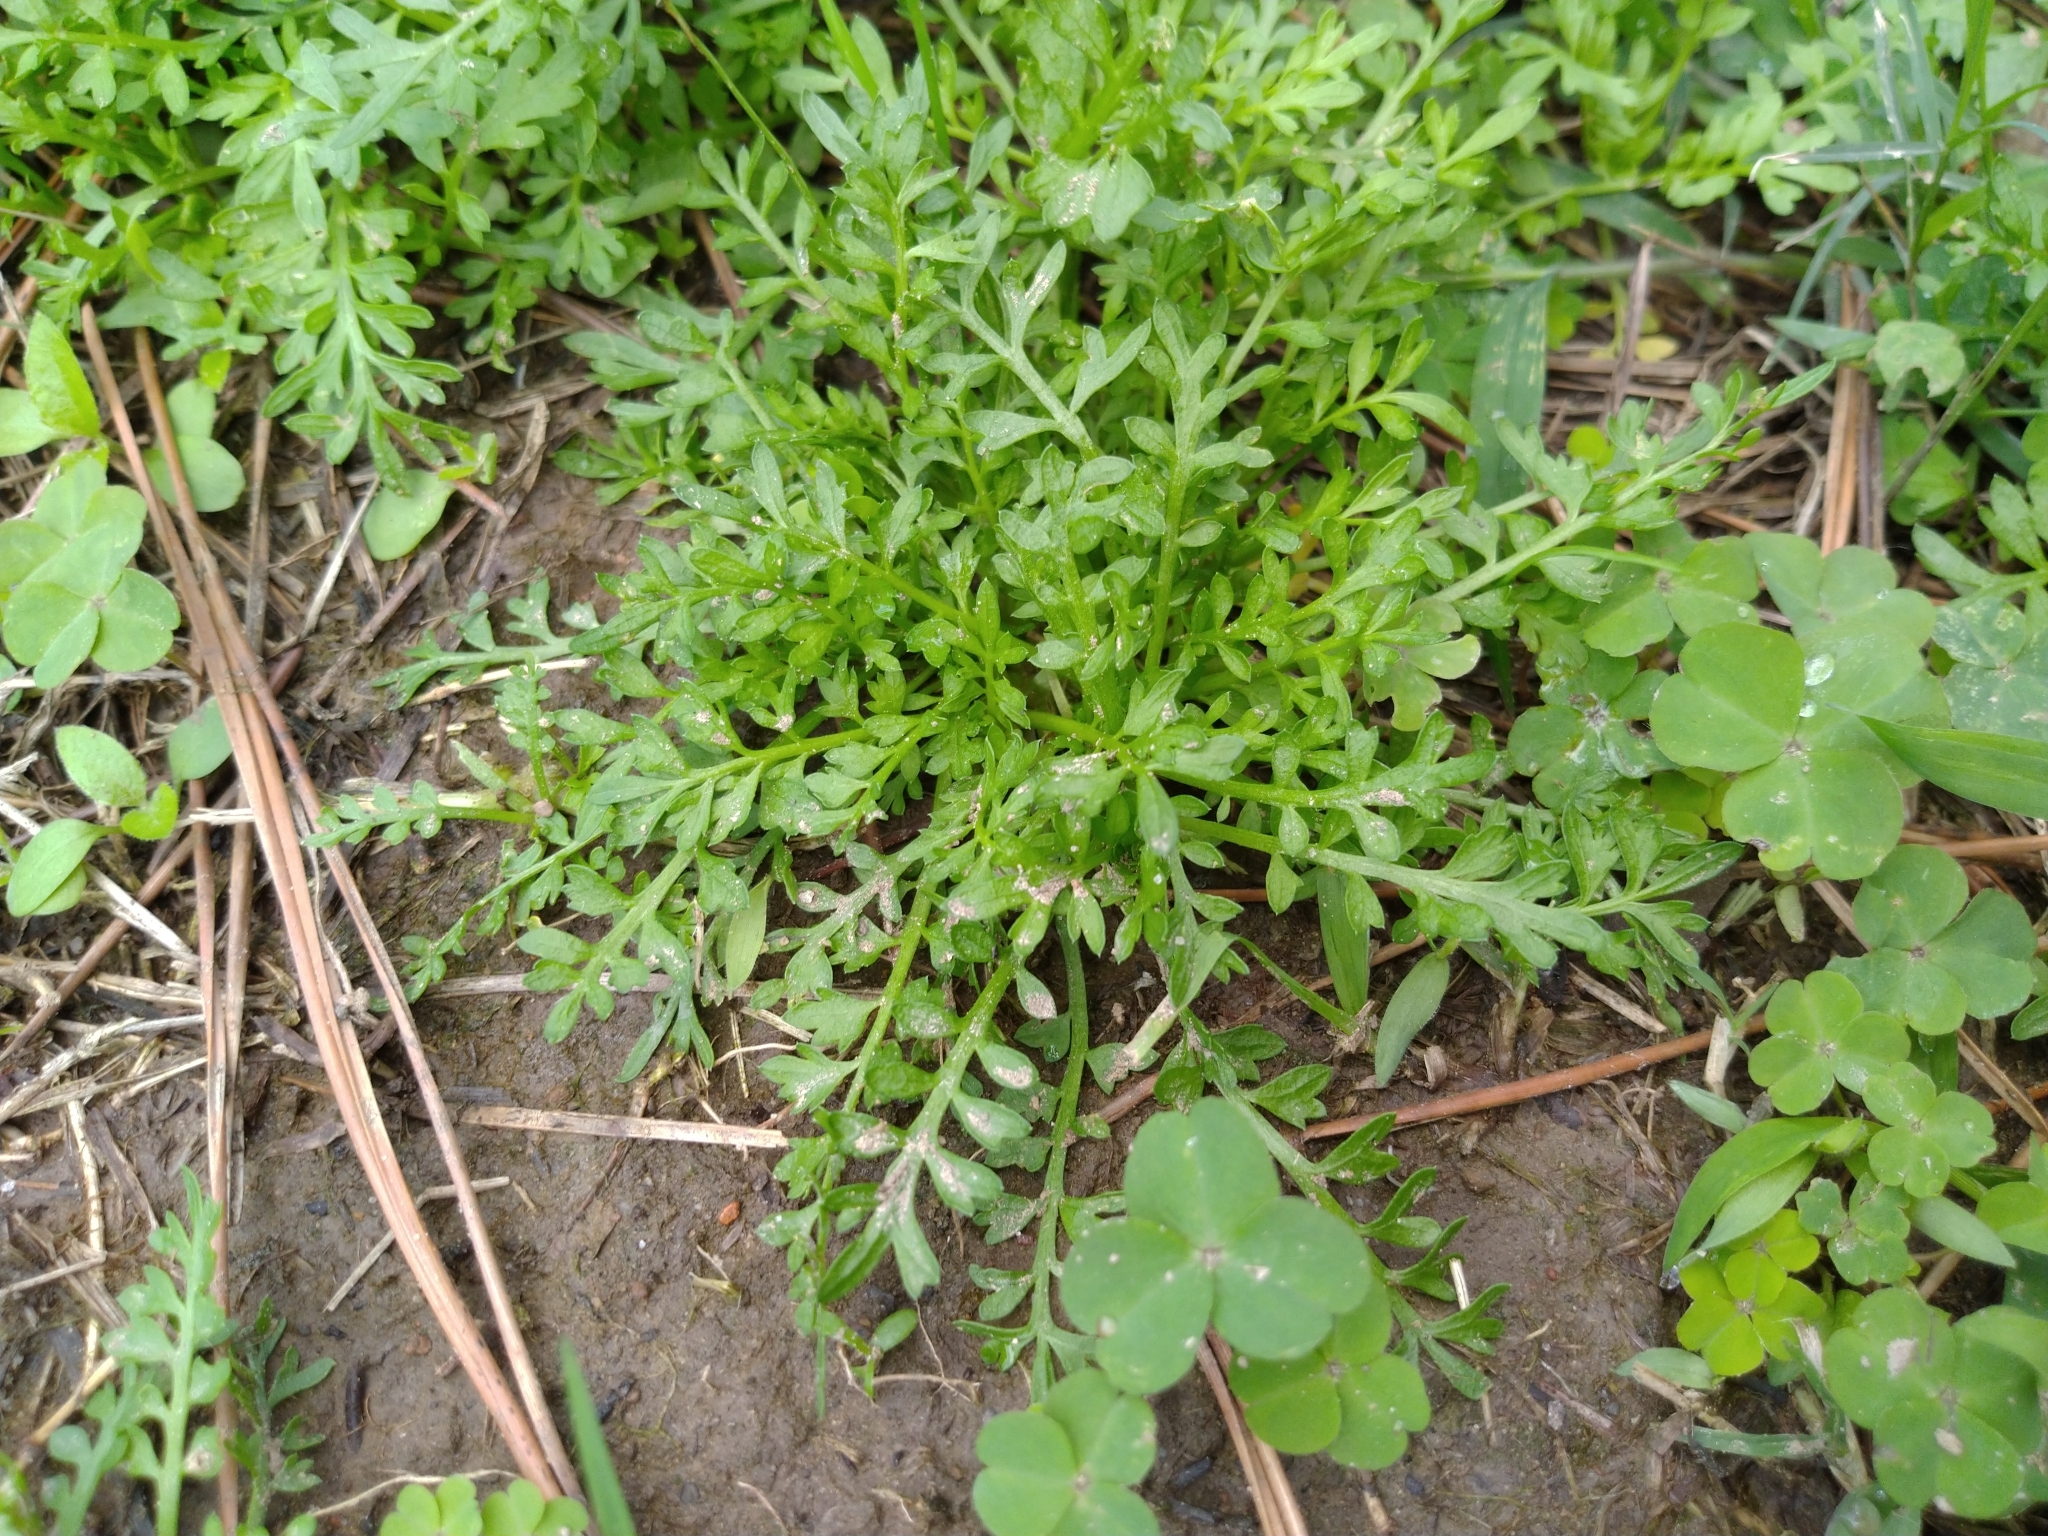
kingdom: Plantae
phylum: Tracheophyta
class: Magnoliopsida
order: Brassicales
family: Brassicaceae
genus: Lepidium
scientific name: Lepidium didymum
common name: Lesser swinecress
